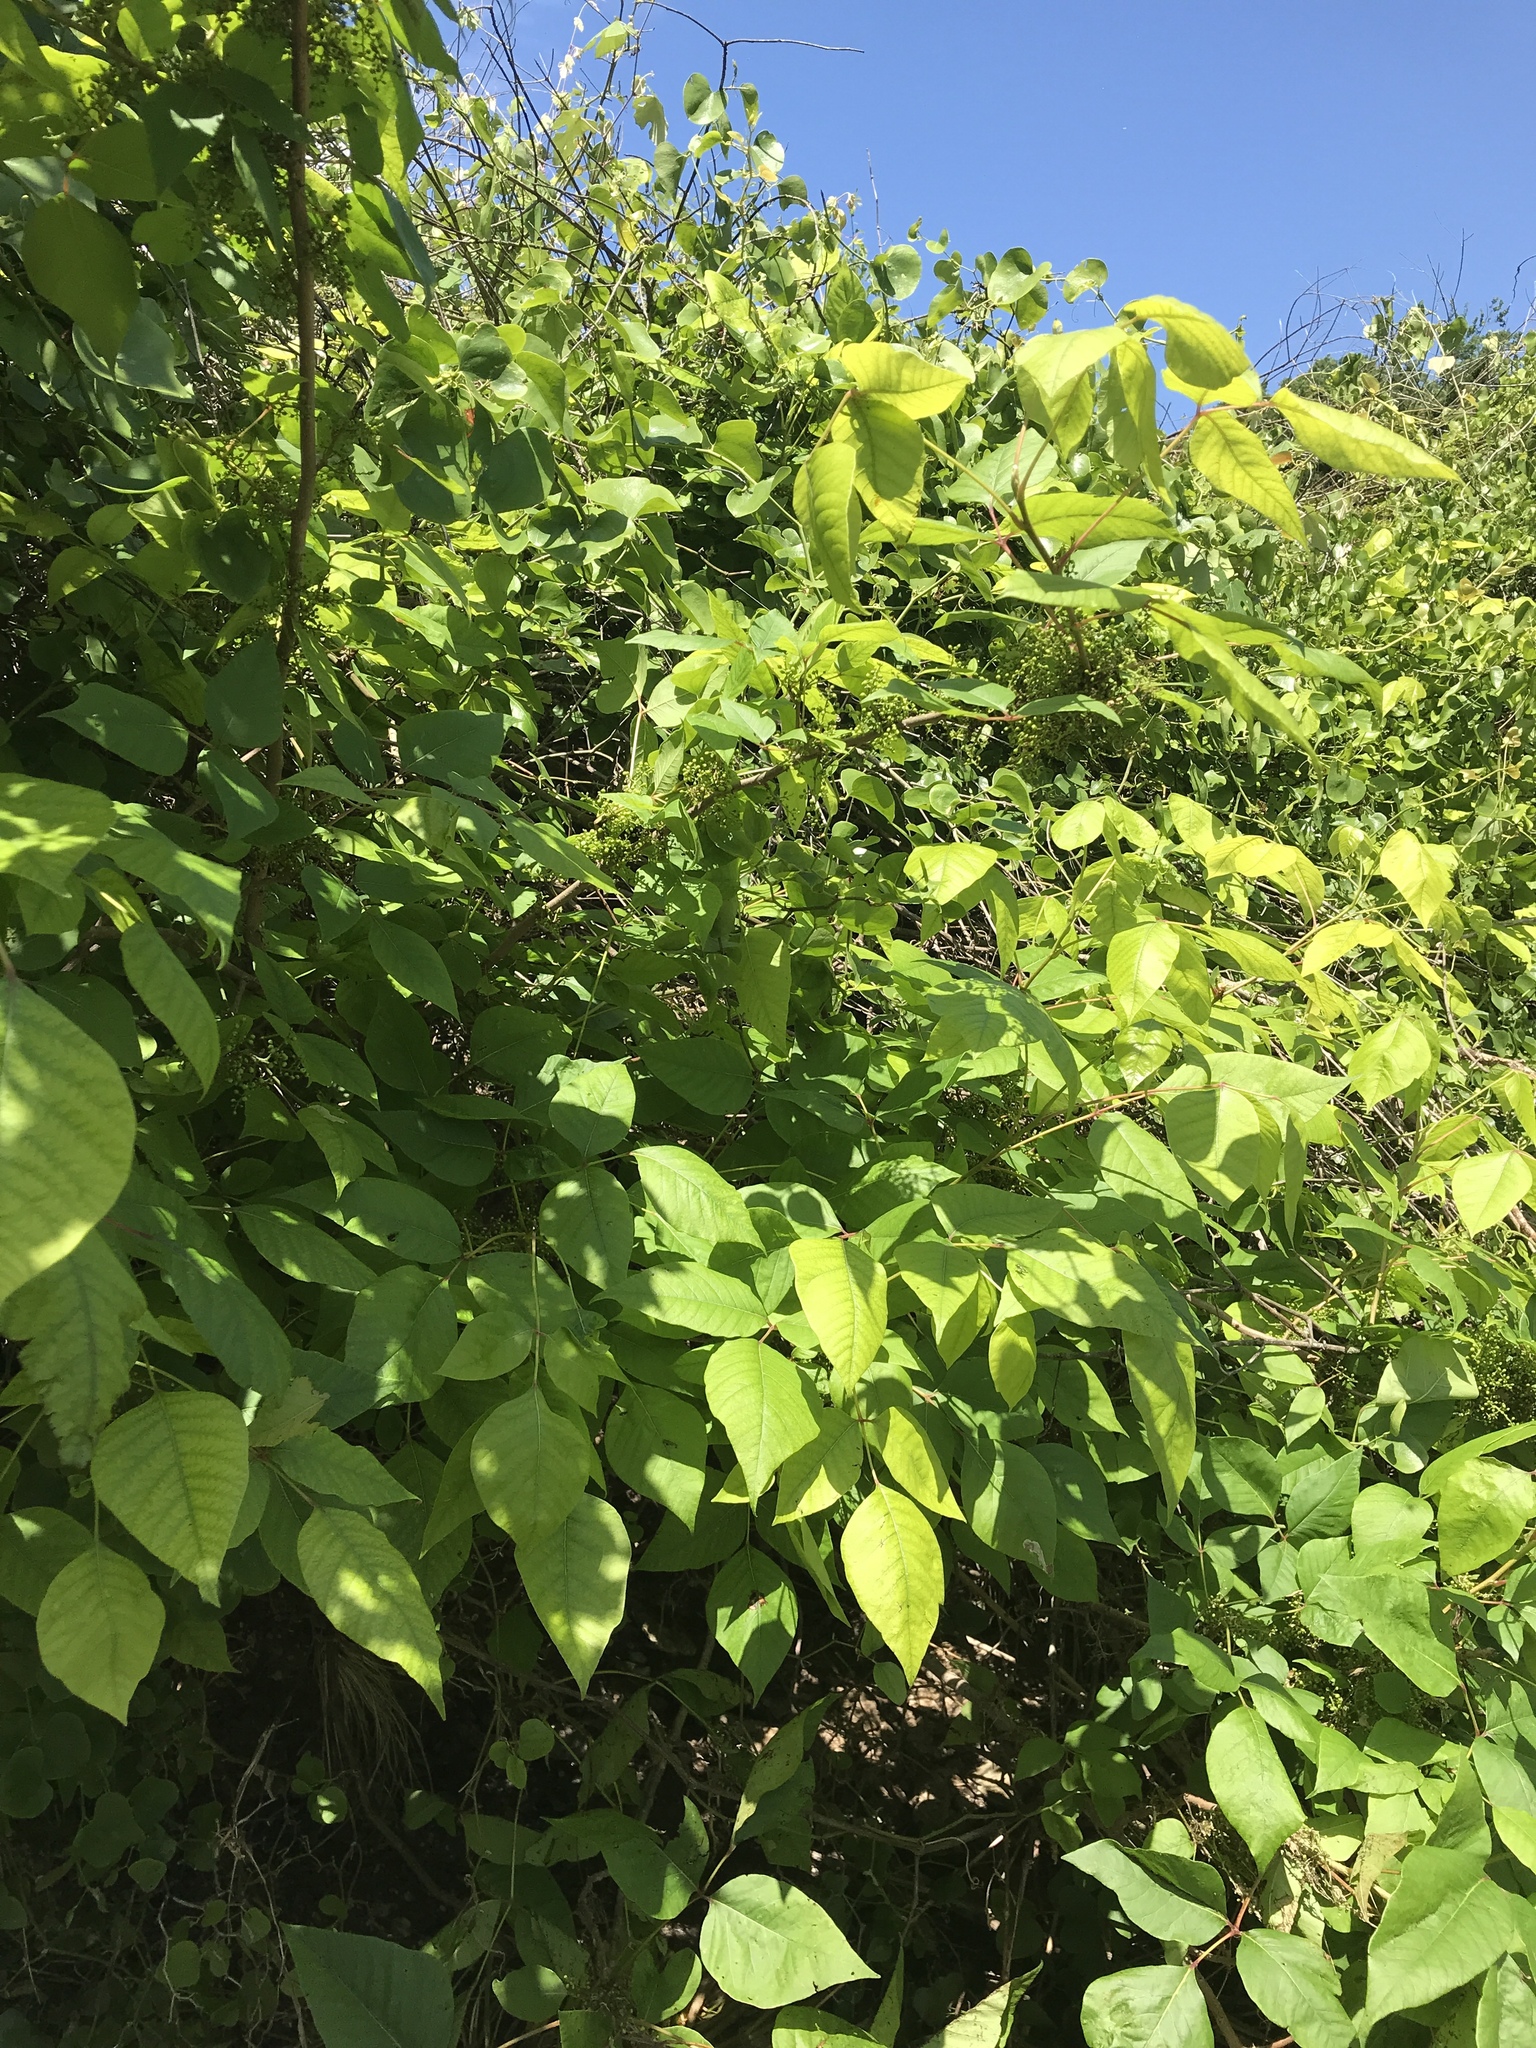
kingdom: Plantae
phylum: Tracheophyta
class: Magnoliopsida
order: Sapindales
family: Anacardiaceae
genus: Toxicodendron
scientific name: Toxicodendron radicans
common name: Poison ivy
